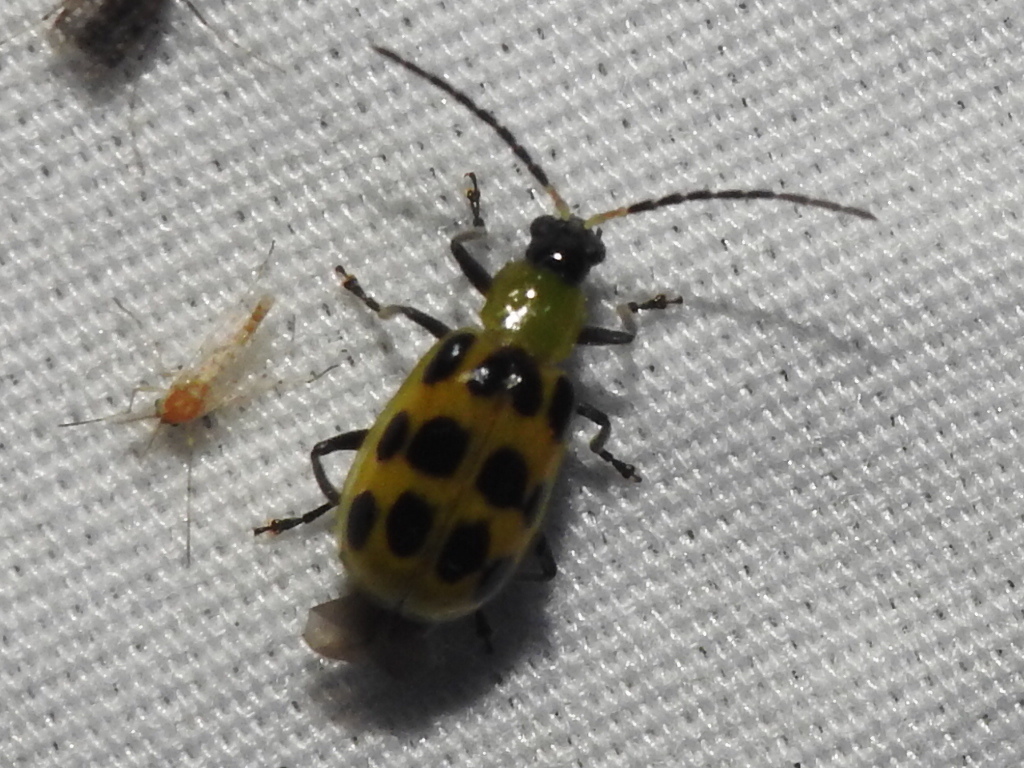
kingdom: Animalia
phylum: Arthropoda
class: Insecta
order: Coleoptera
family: Chrysomelidae
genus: Diabrotica
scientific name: Diabrotica undecimpunctata
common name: Spotted cucumber beetle
